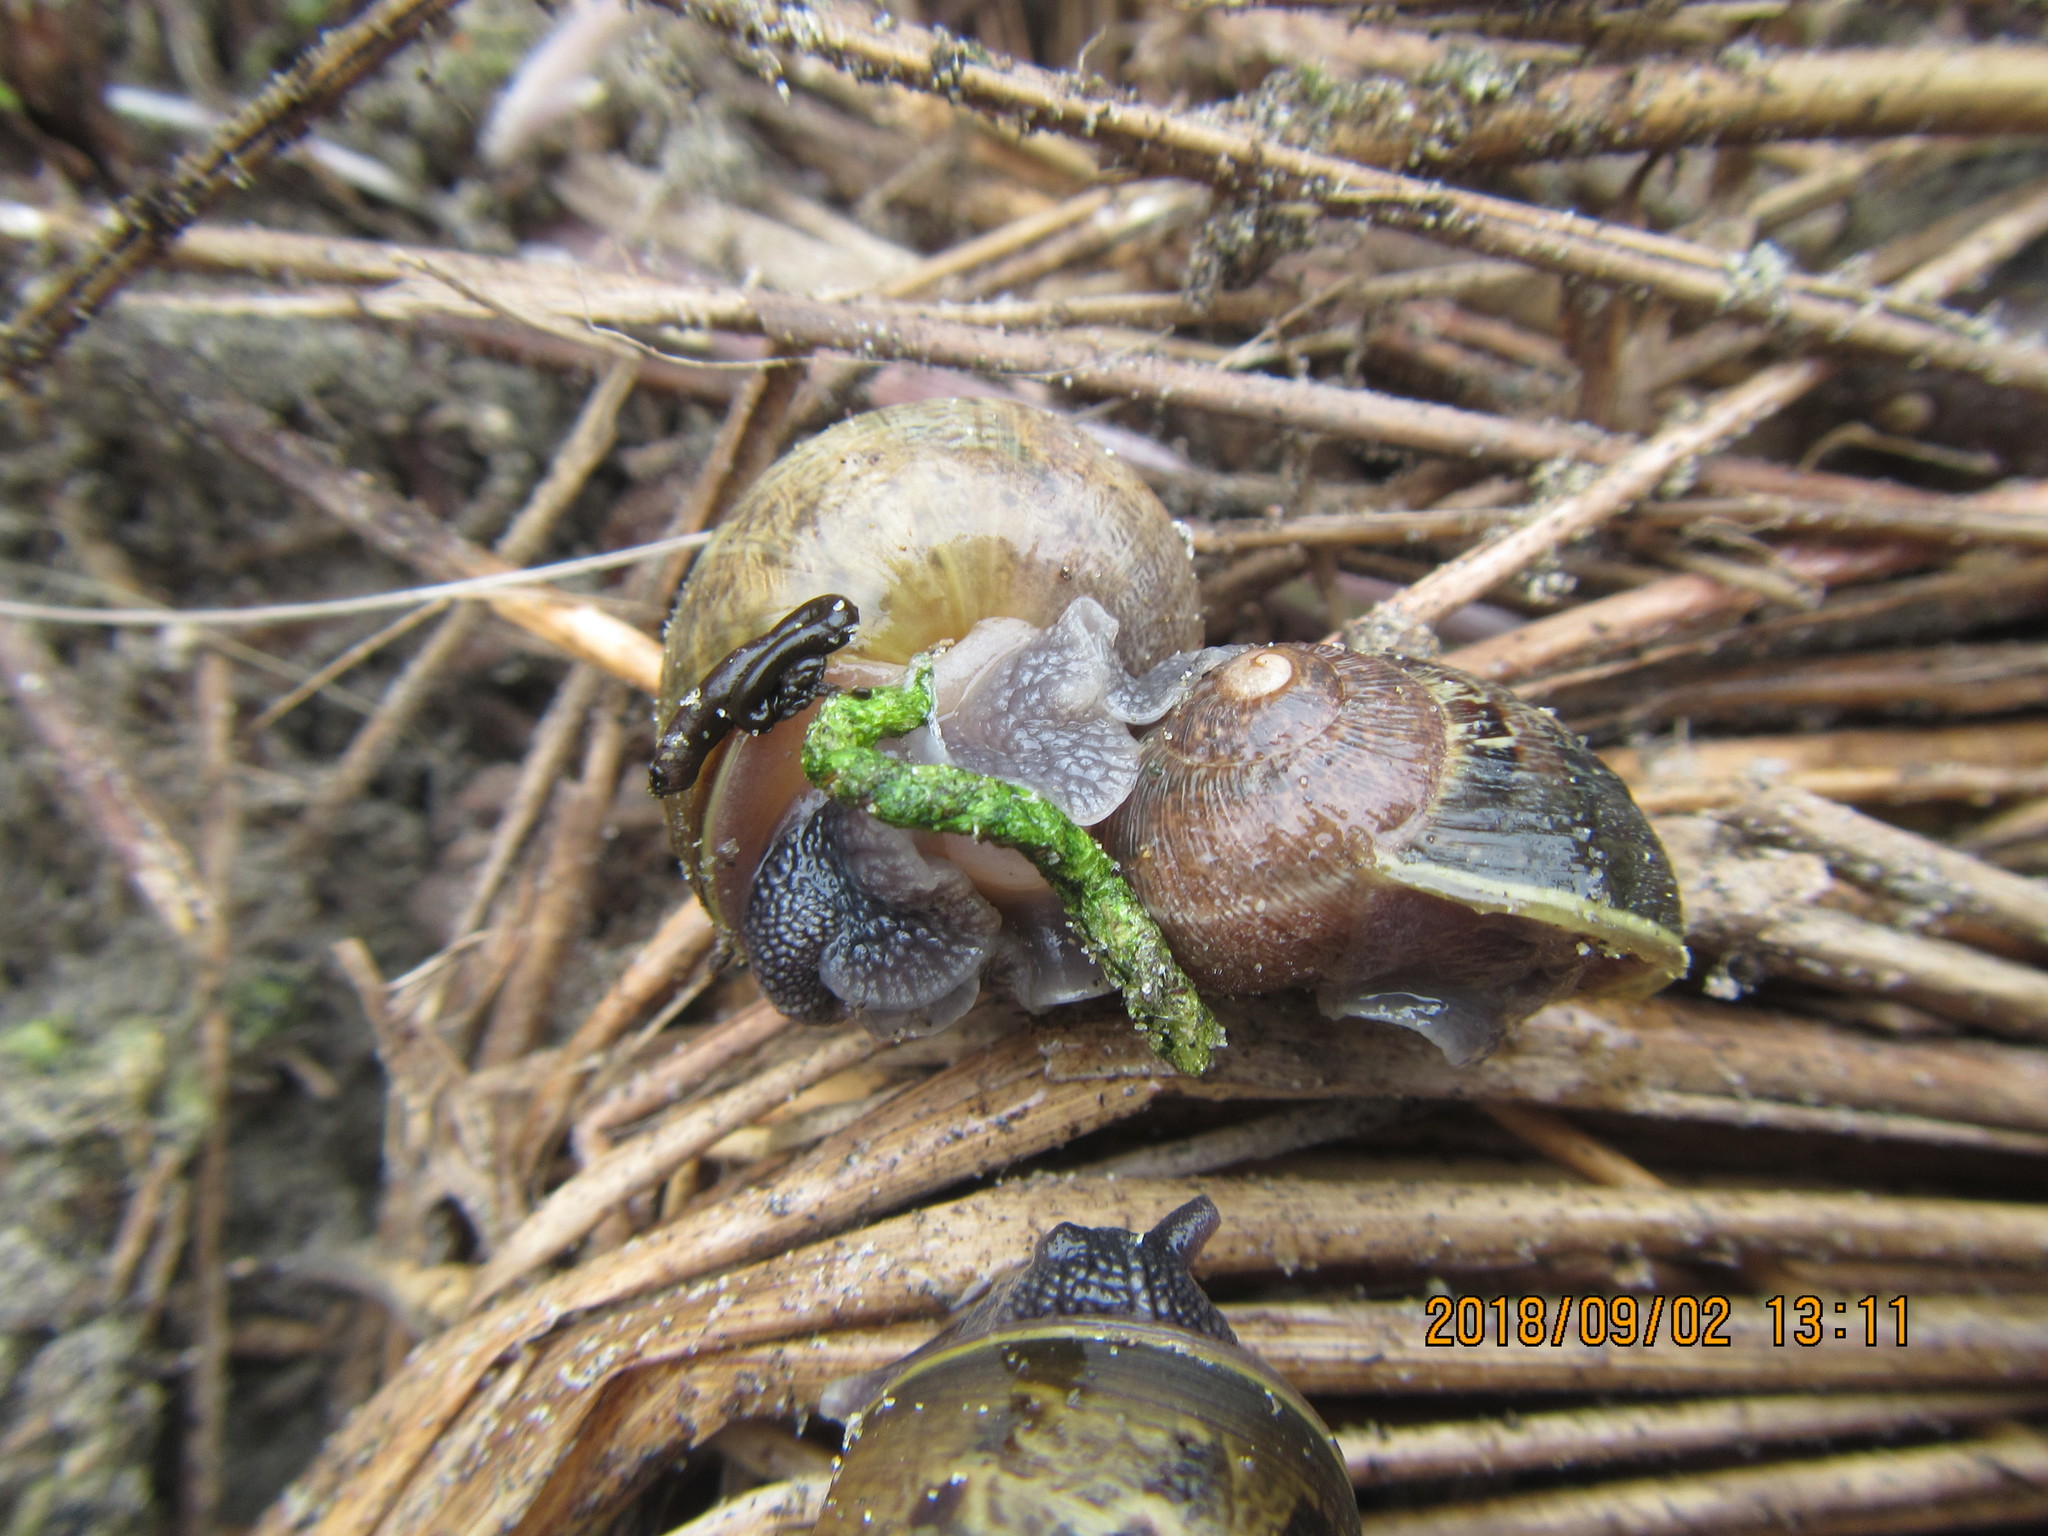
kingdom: Animalia
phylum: Mollusca
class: Gastropoda
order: Stylommatophora
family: Helicidae
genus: Cornu
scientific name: Cornu aspersum
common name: Brown garden snail
